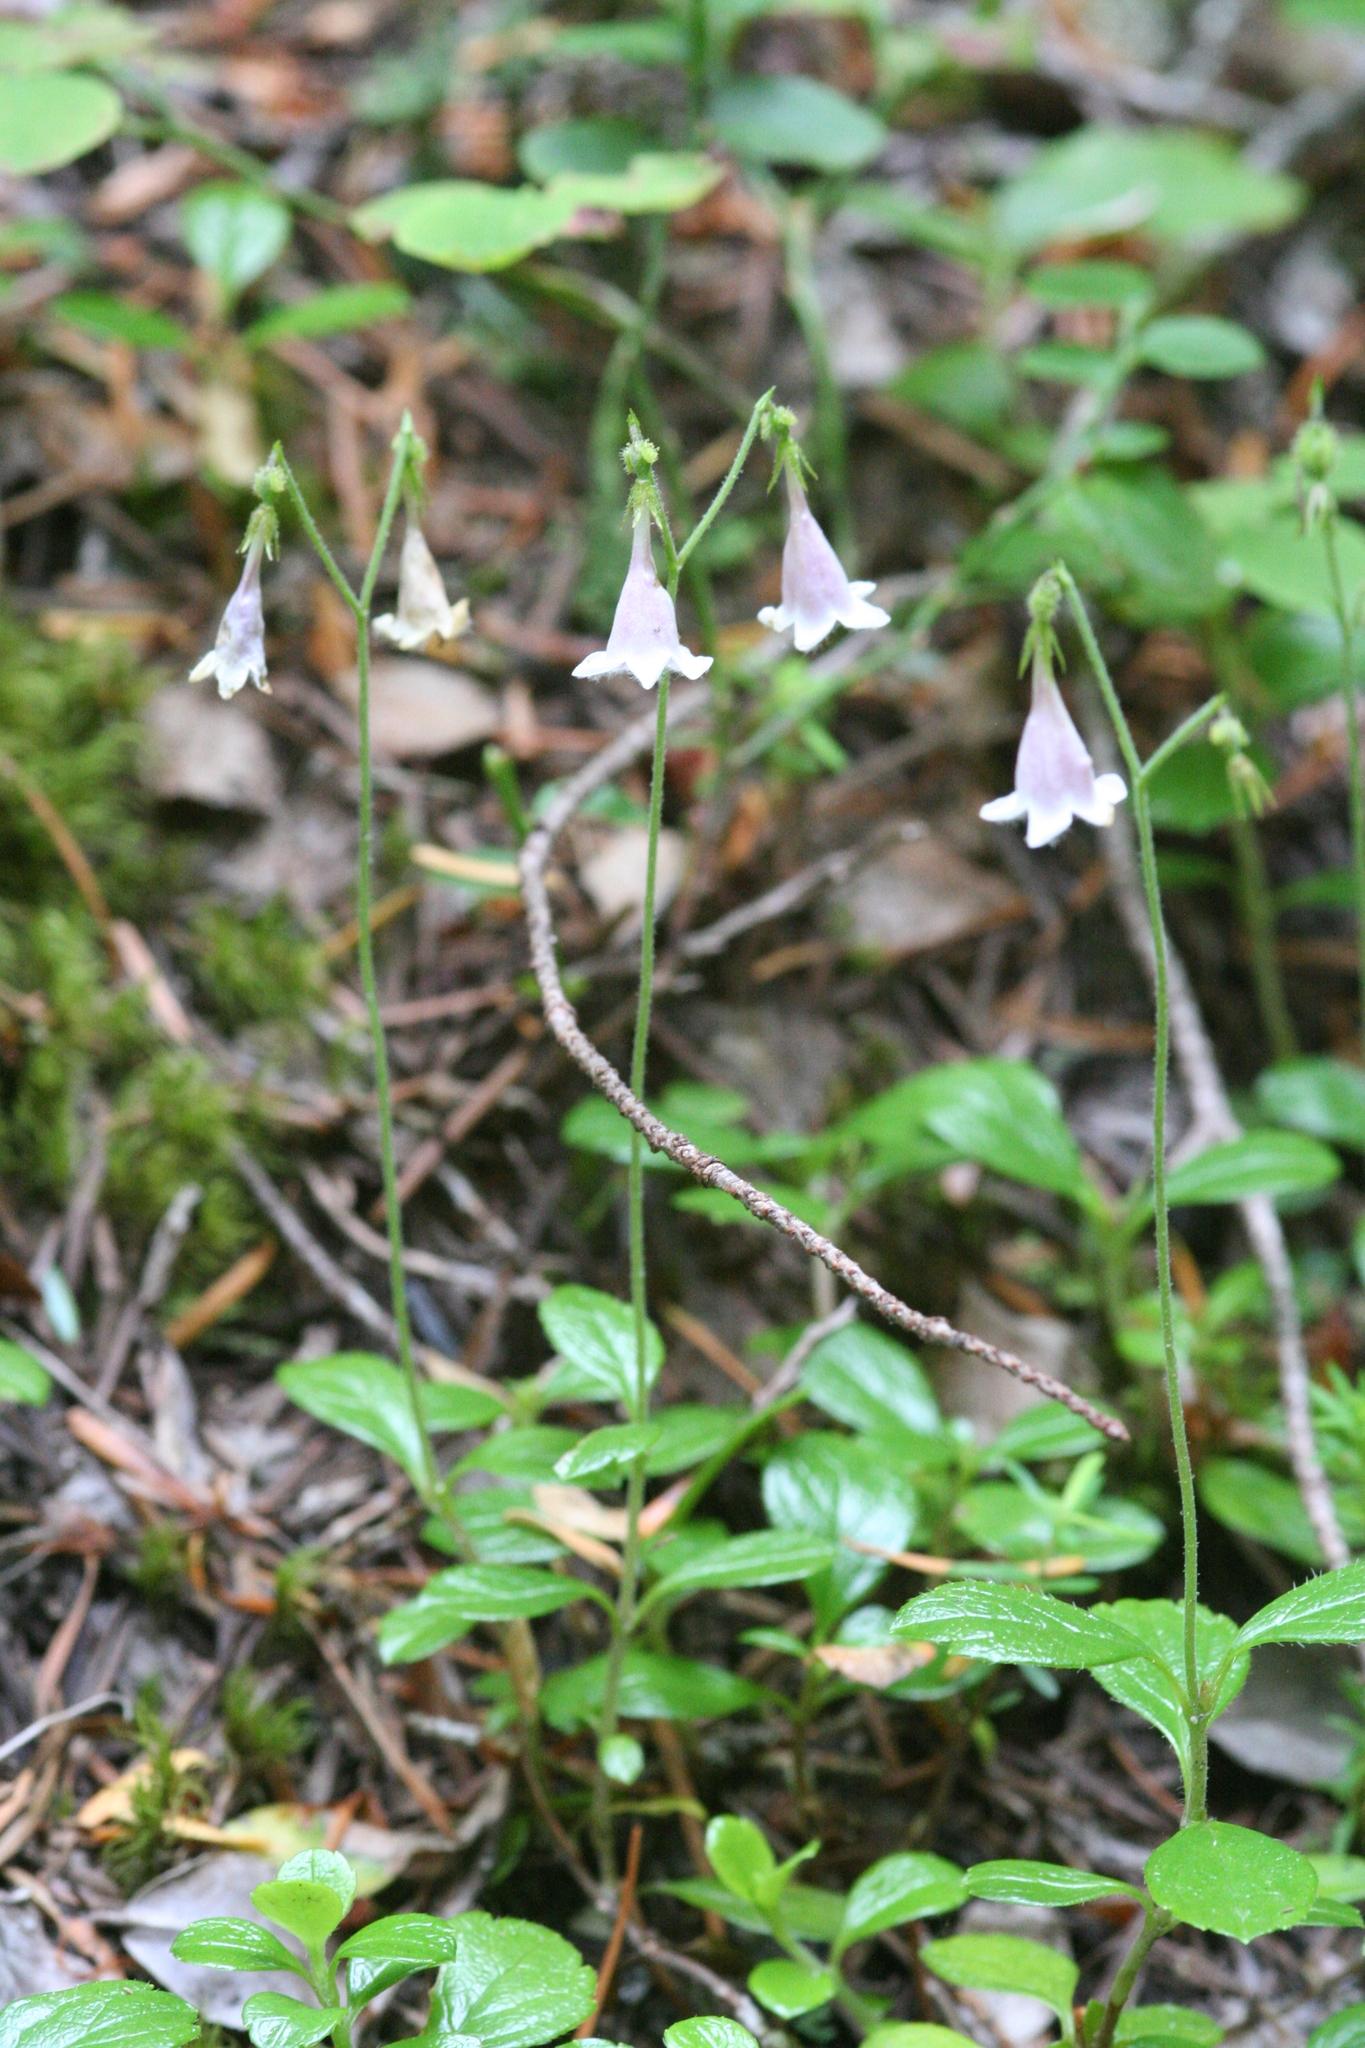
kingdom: Plantae
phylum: Tracheophyta
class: Magnoliopsida
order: Dipsacales
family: Caprifoliaceae
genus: Linnaea
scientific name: Linnaea borealis
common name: Twinflower
